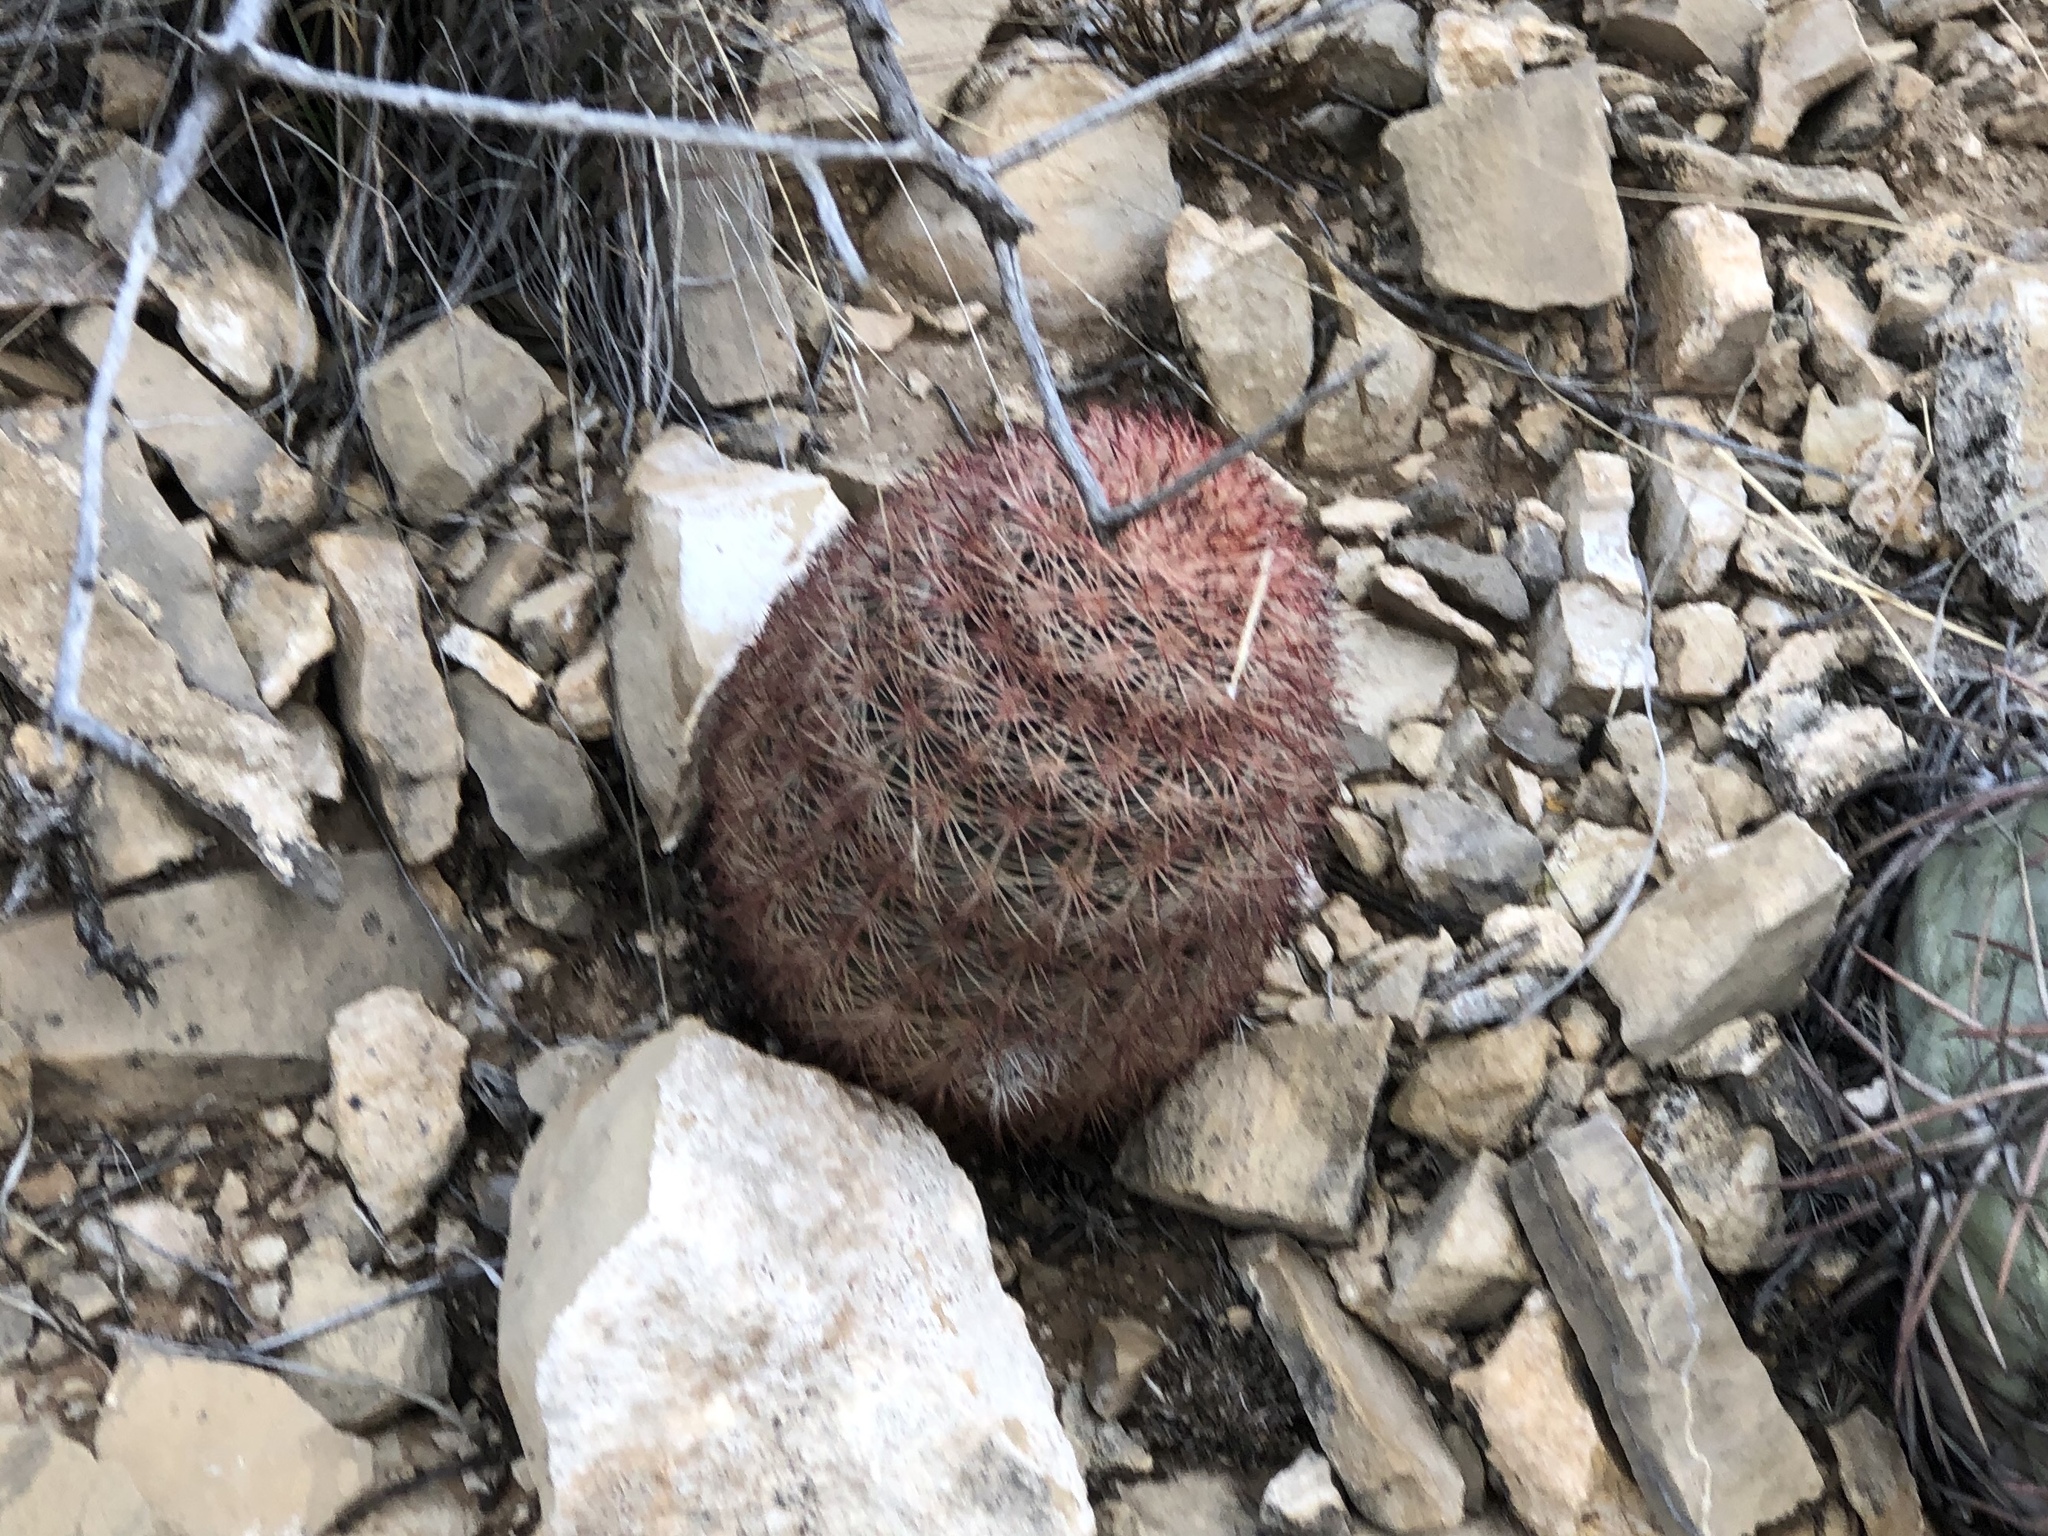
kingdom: Plantae
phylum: Tracheophyta
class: Magnoliopsida
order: Caryophyllales
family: Cactaceae
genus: Echinocereus
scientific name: Echinocereus dasyacanthus
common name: Spiny hedgehog cactus
